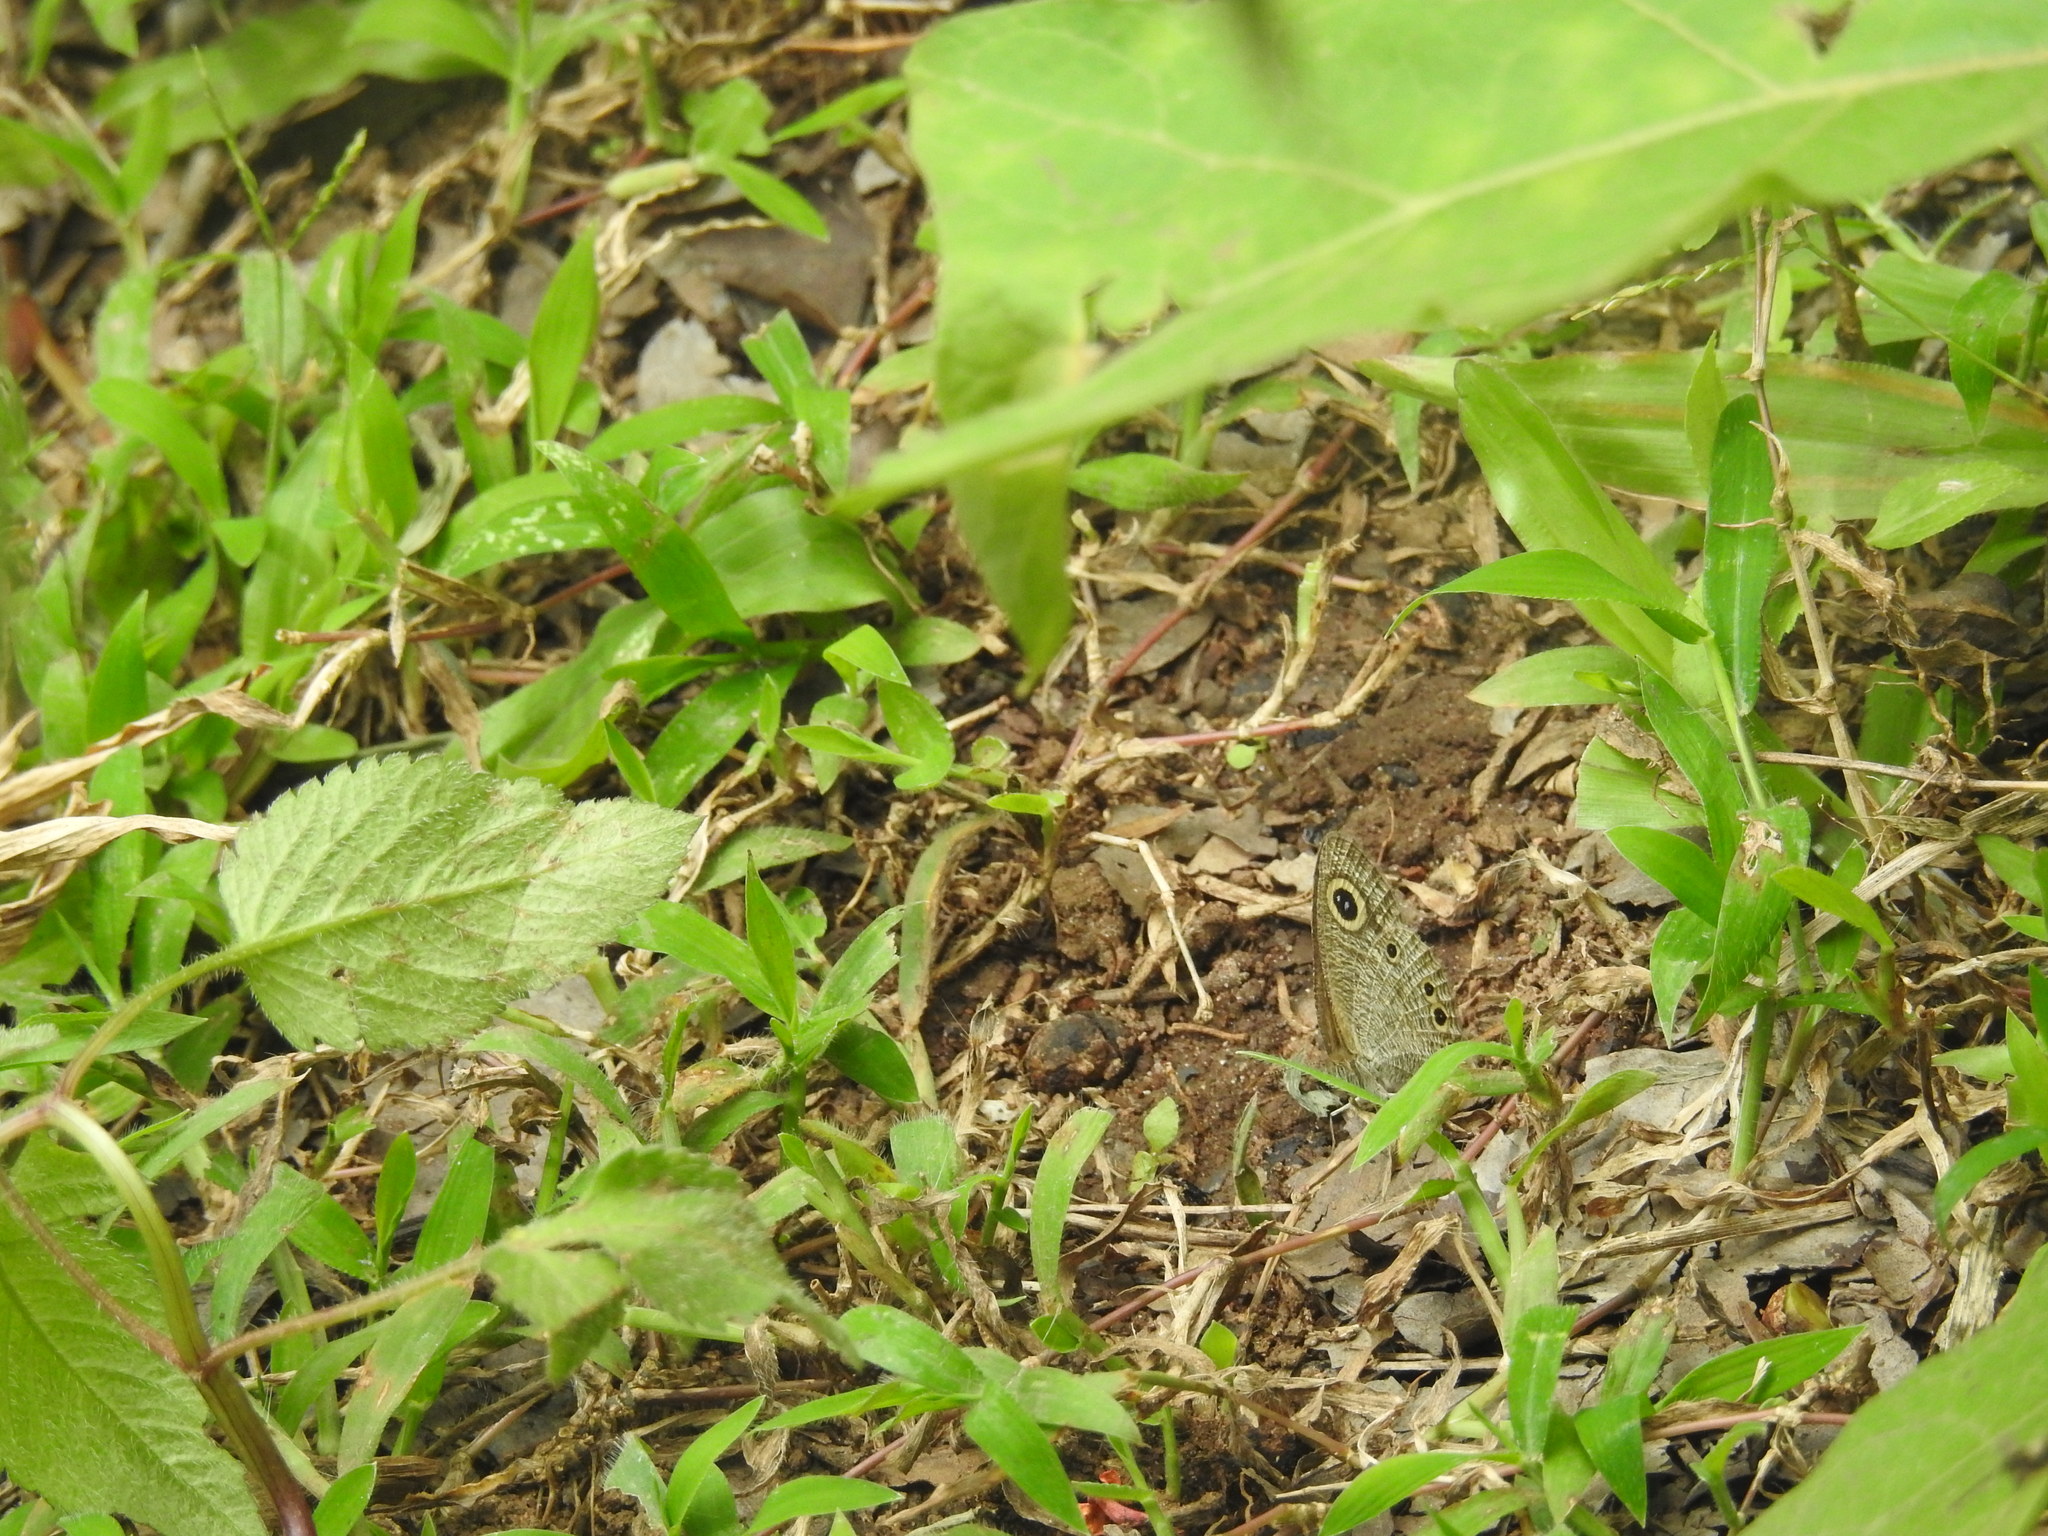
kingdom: Animalia
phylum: Arthropoda
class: Insecta
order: Lepidoptera
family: Nymphalidae
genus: Ypthima
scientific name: Ypthima huebneri
